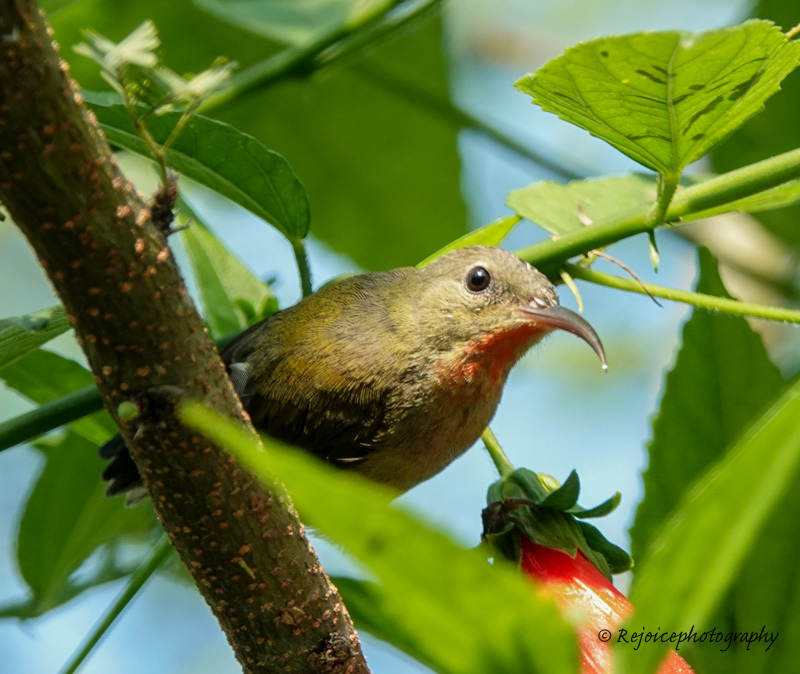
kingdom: Animalia
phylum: Chordata
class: Aves
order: Passeriformes
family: Nectariniidae
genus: Aethopyga
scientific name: Aethopyga siparaja
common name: Crimson sunbird
